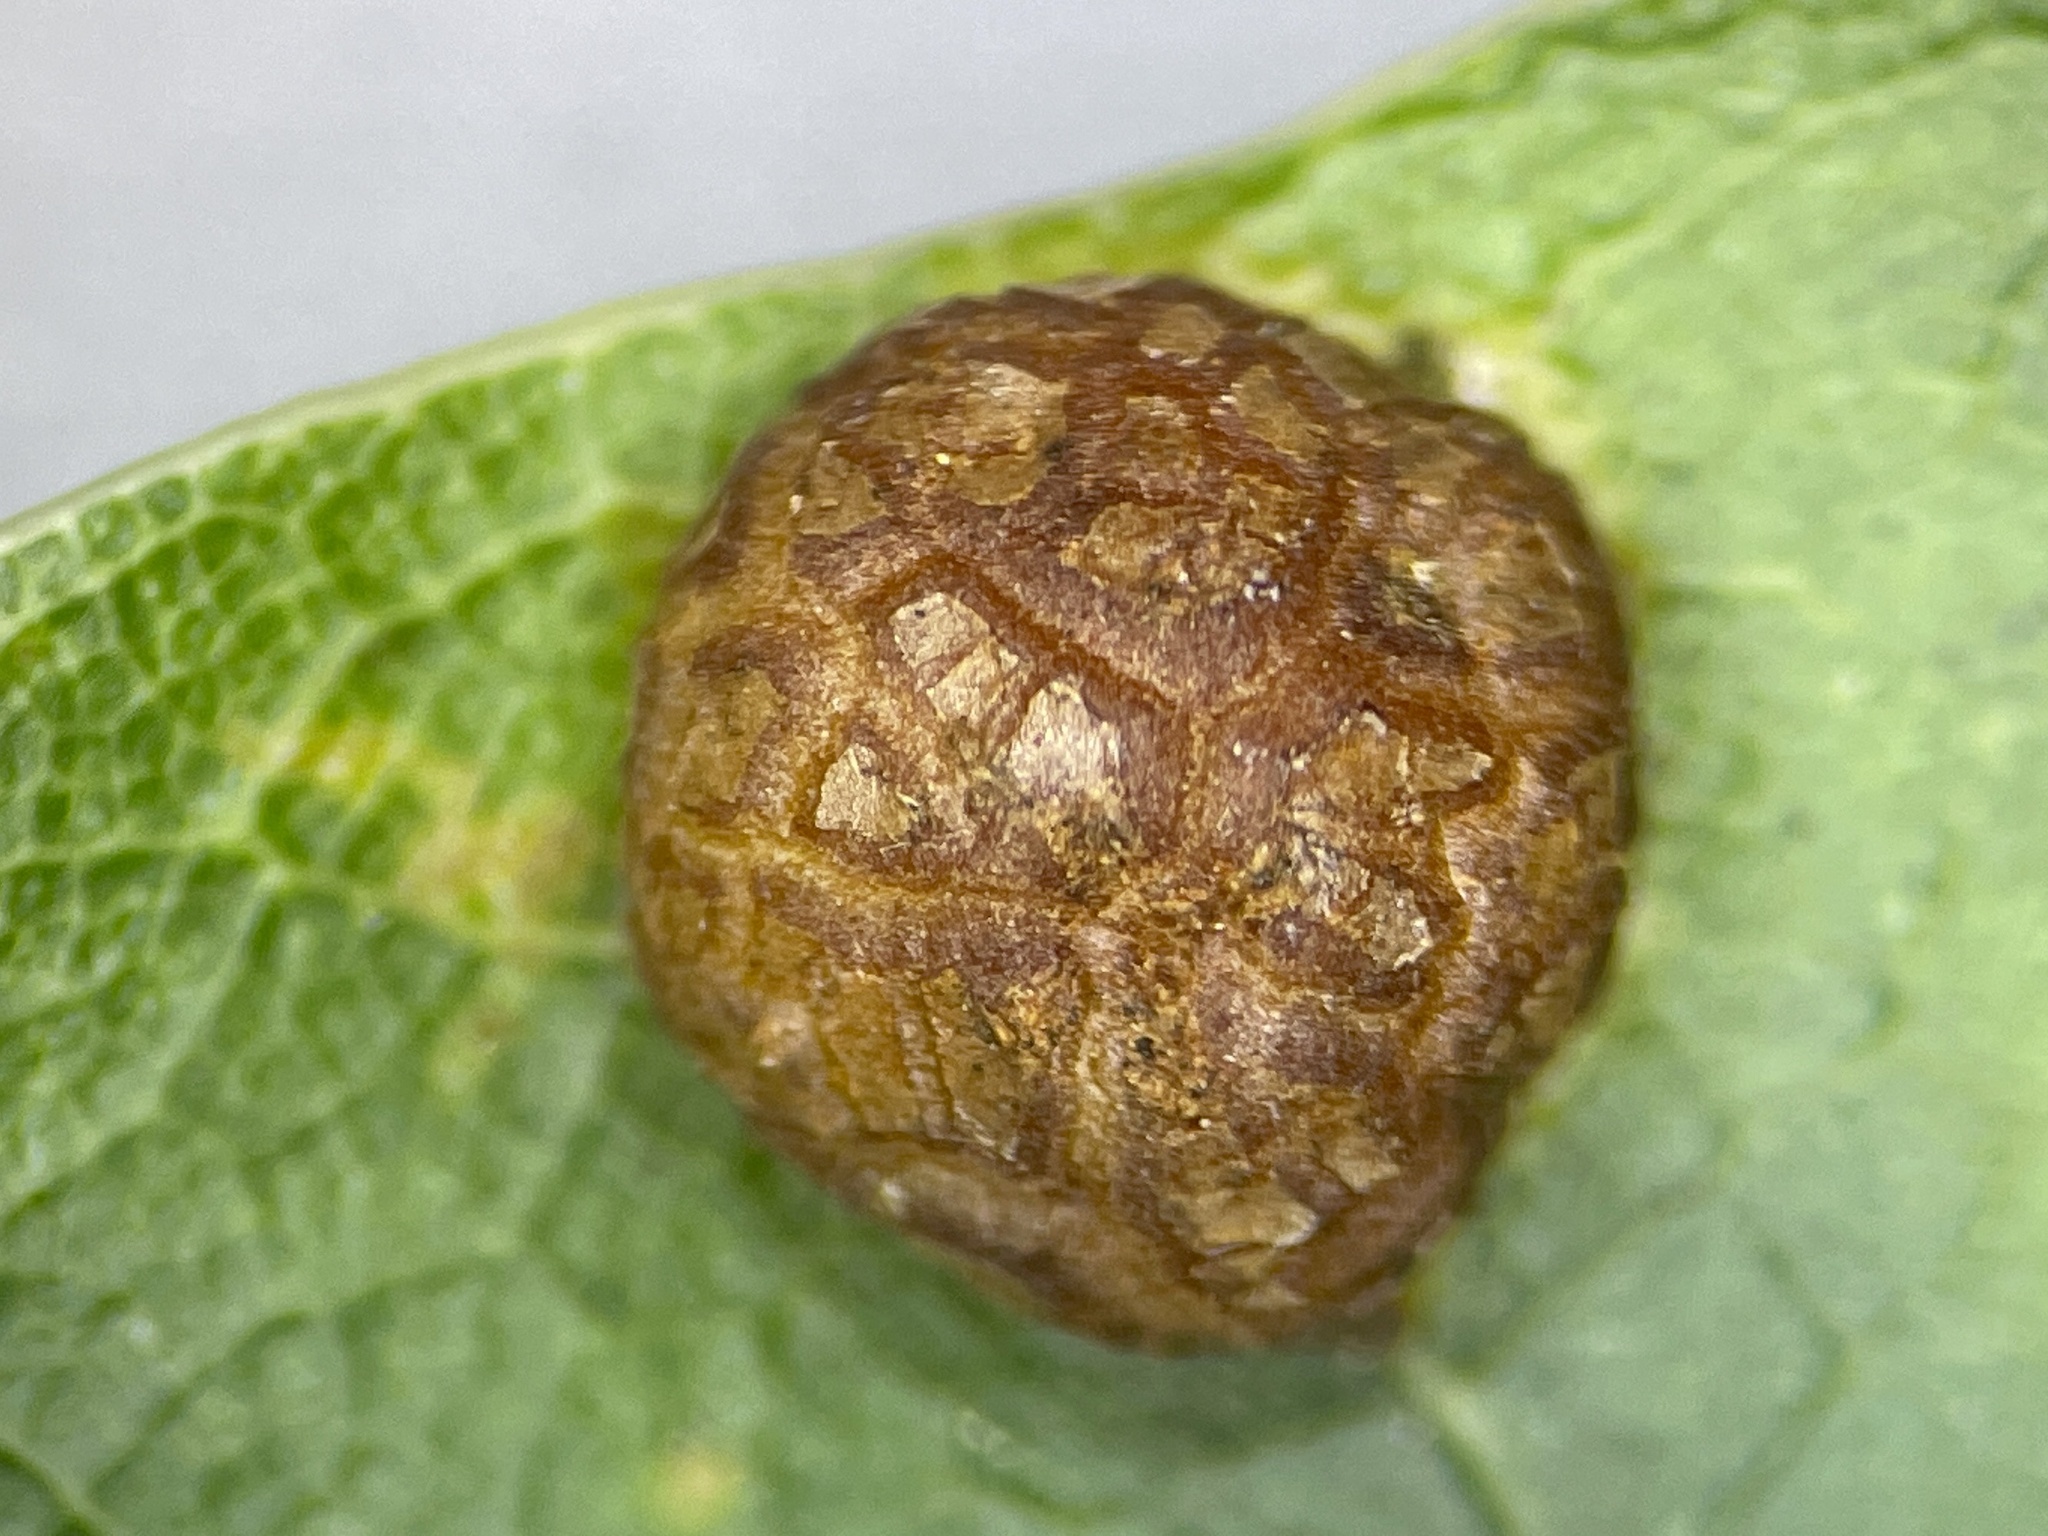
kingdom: Animalia
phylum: Arthropoda
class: Insecta
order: Diptera
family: Cecidomyiidae
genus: Polystepha
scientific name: Polystepha pilulae
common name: Oak leaf gall midge
